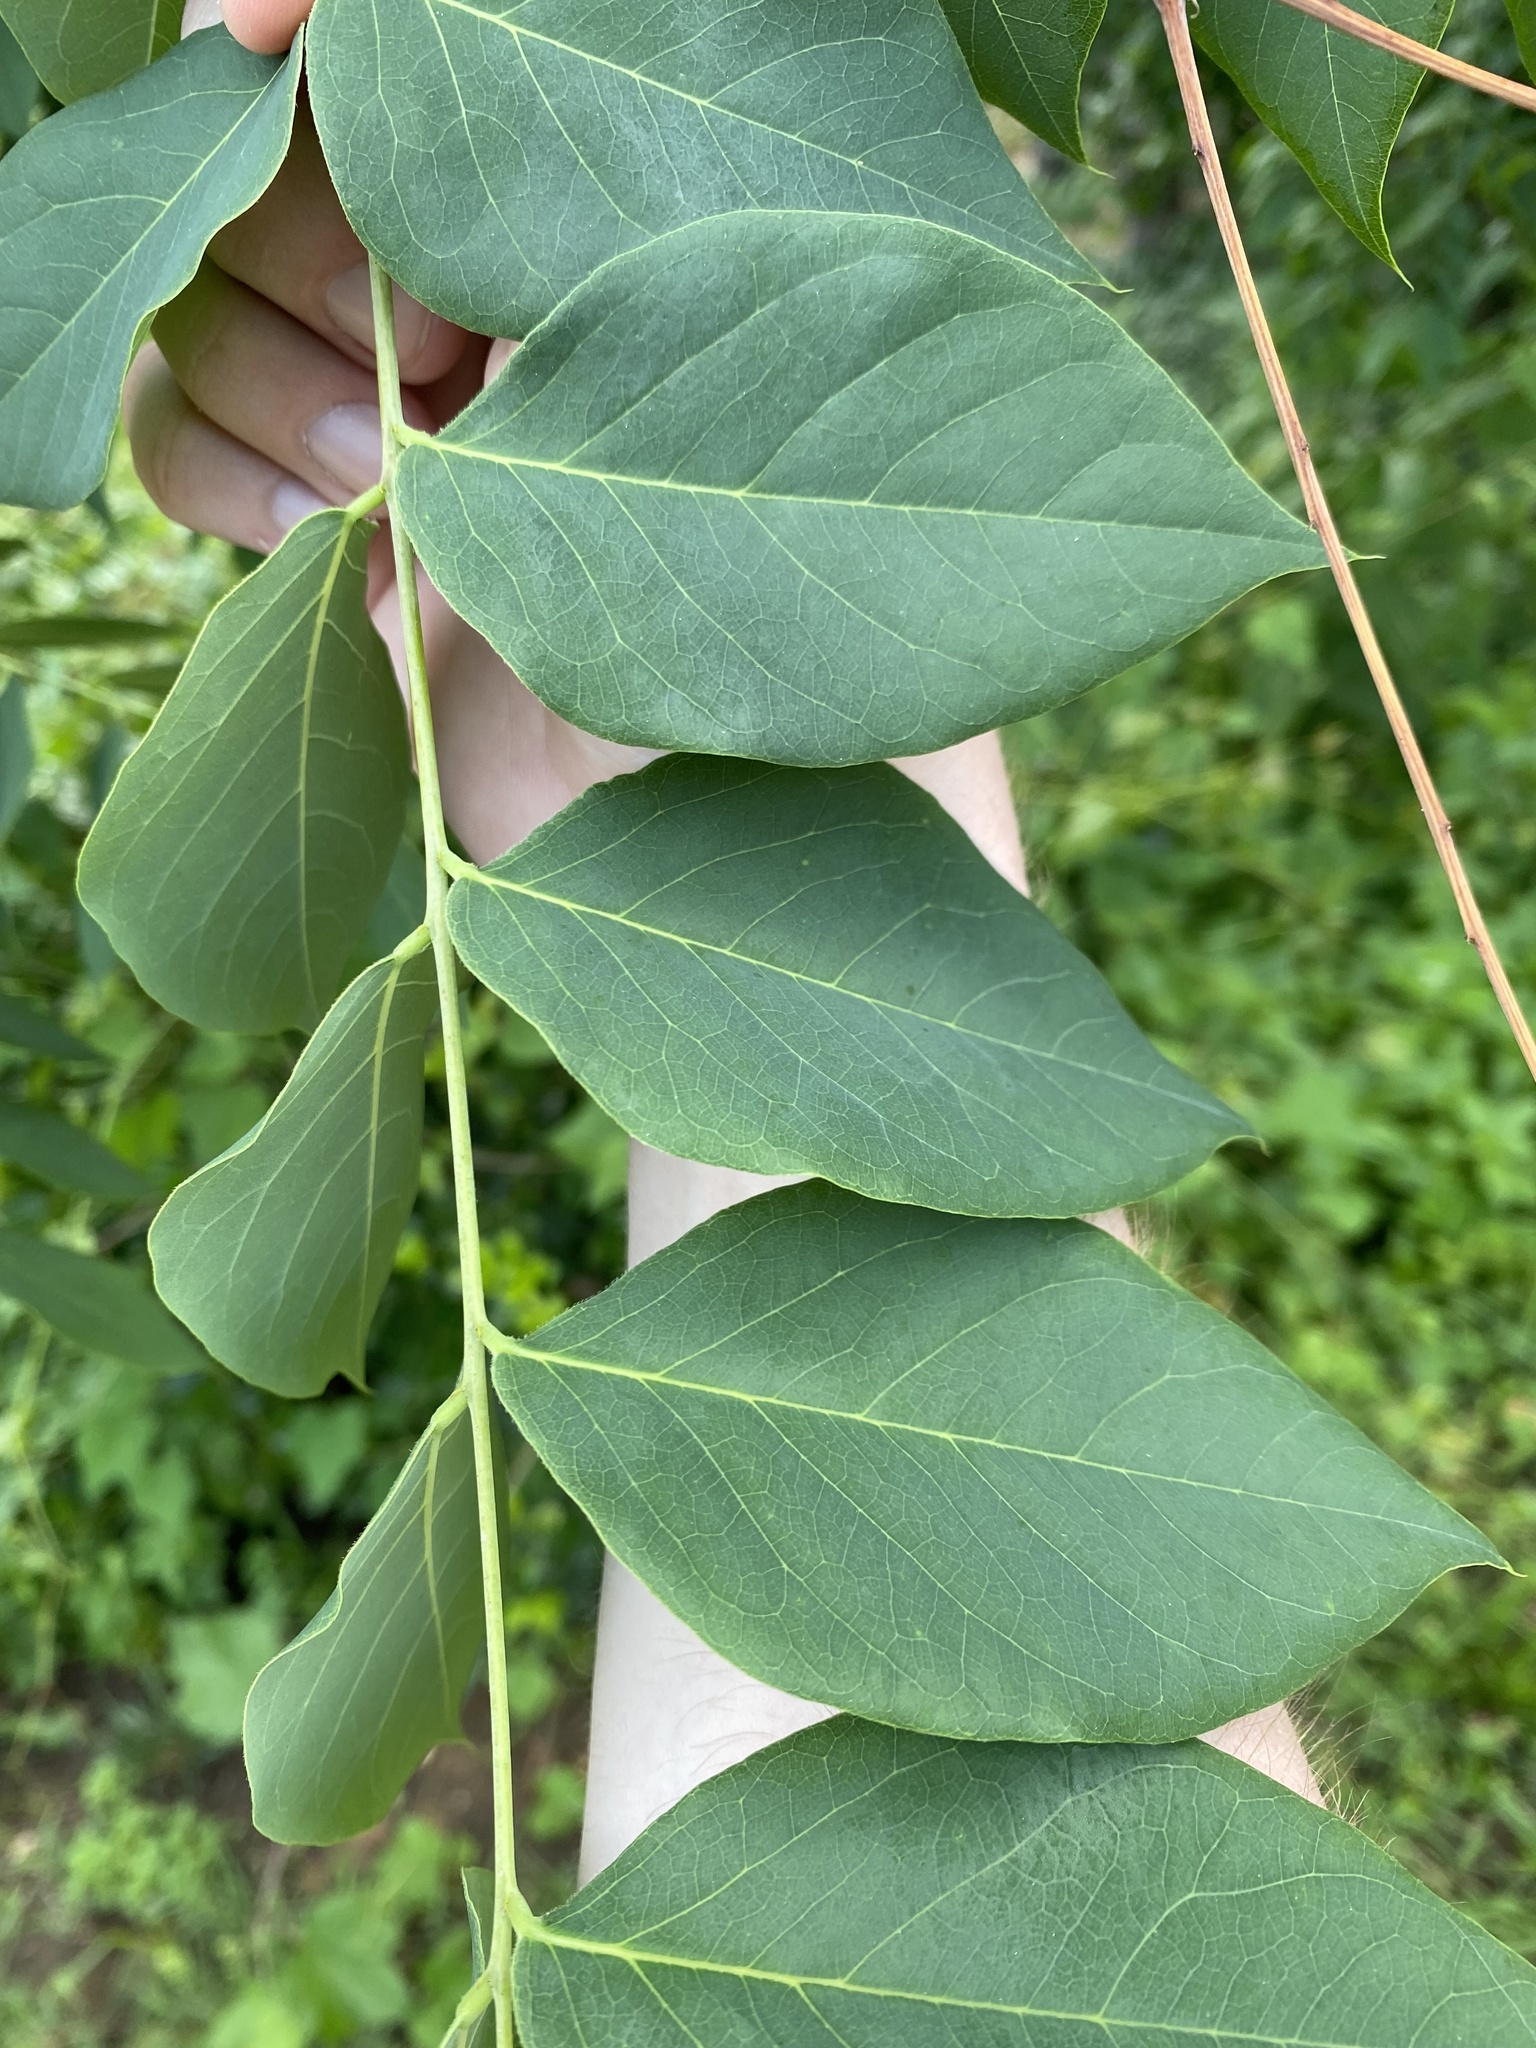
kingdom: Plantae
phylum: Tracheophyta
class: Magnoliopsida
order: Fabales
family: Fabaceae
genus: Gymnocladus
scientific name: Gymnocladus dioicus
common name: Kentucky coffee-tree
